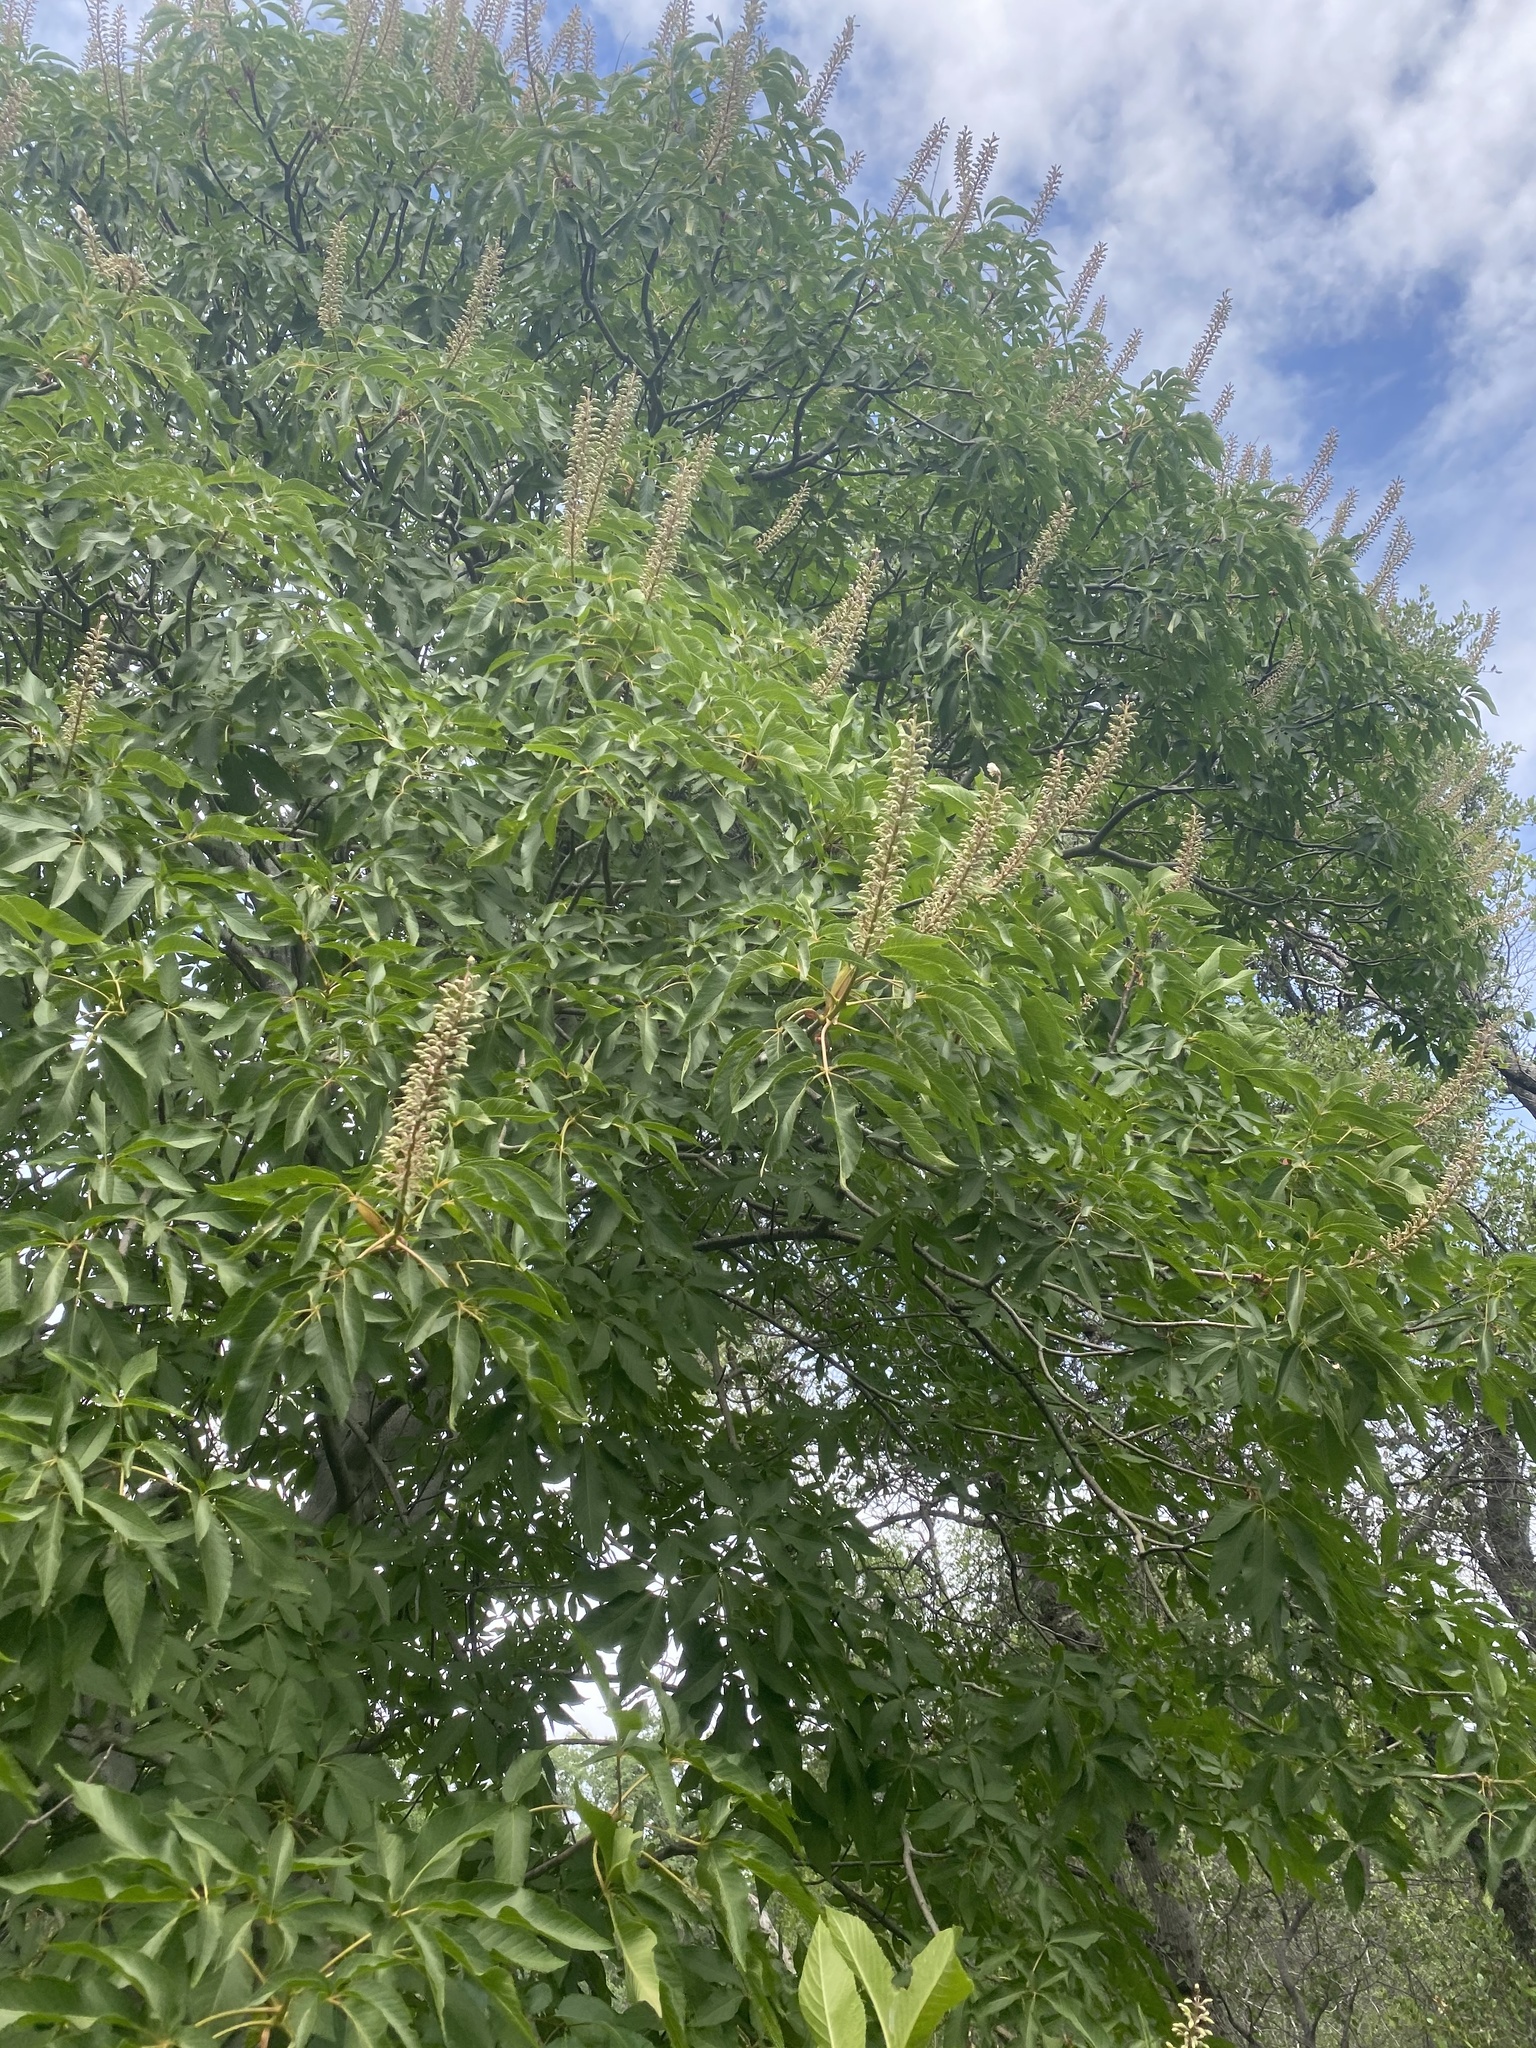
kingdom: Plantae
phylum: Tracheophyta
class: Magnoliopsida
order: Sapindales
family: Sapindaceae
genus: Aesculus
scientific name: Aesculus californica
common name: California buckeye
